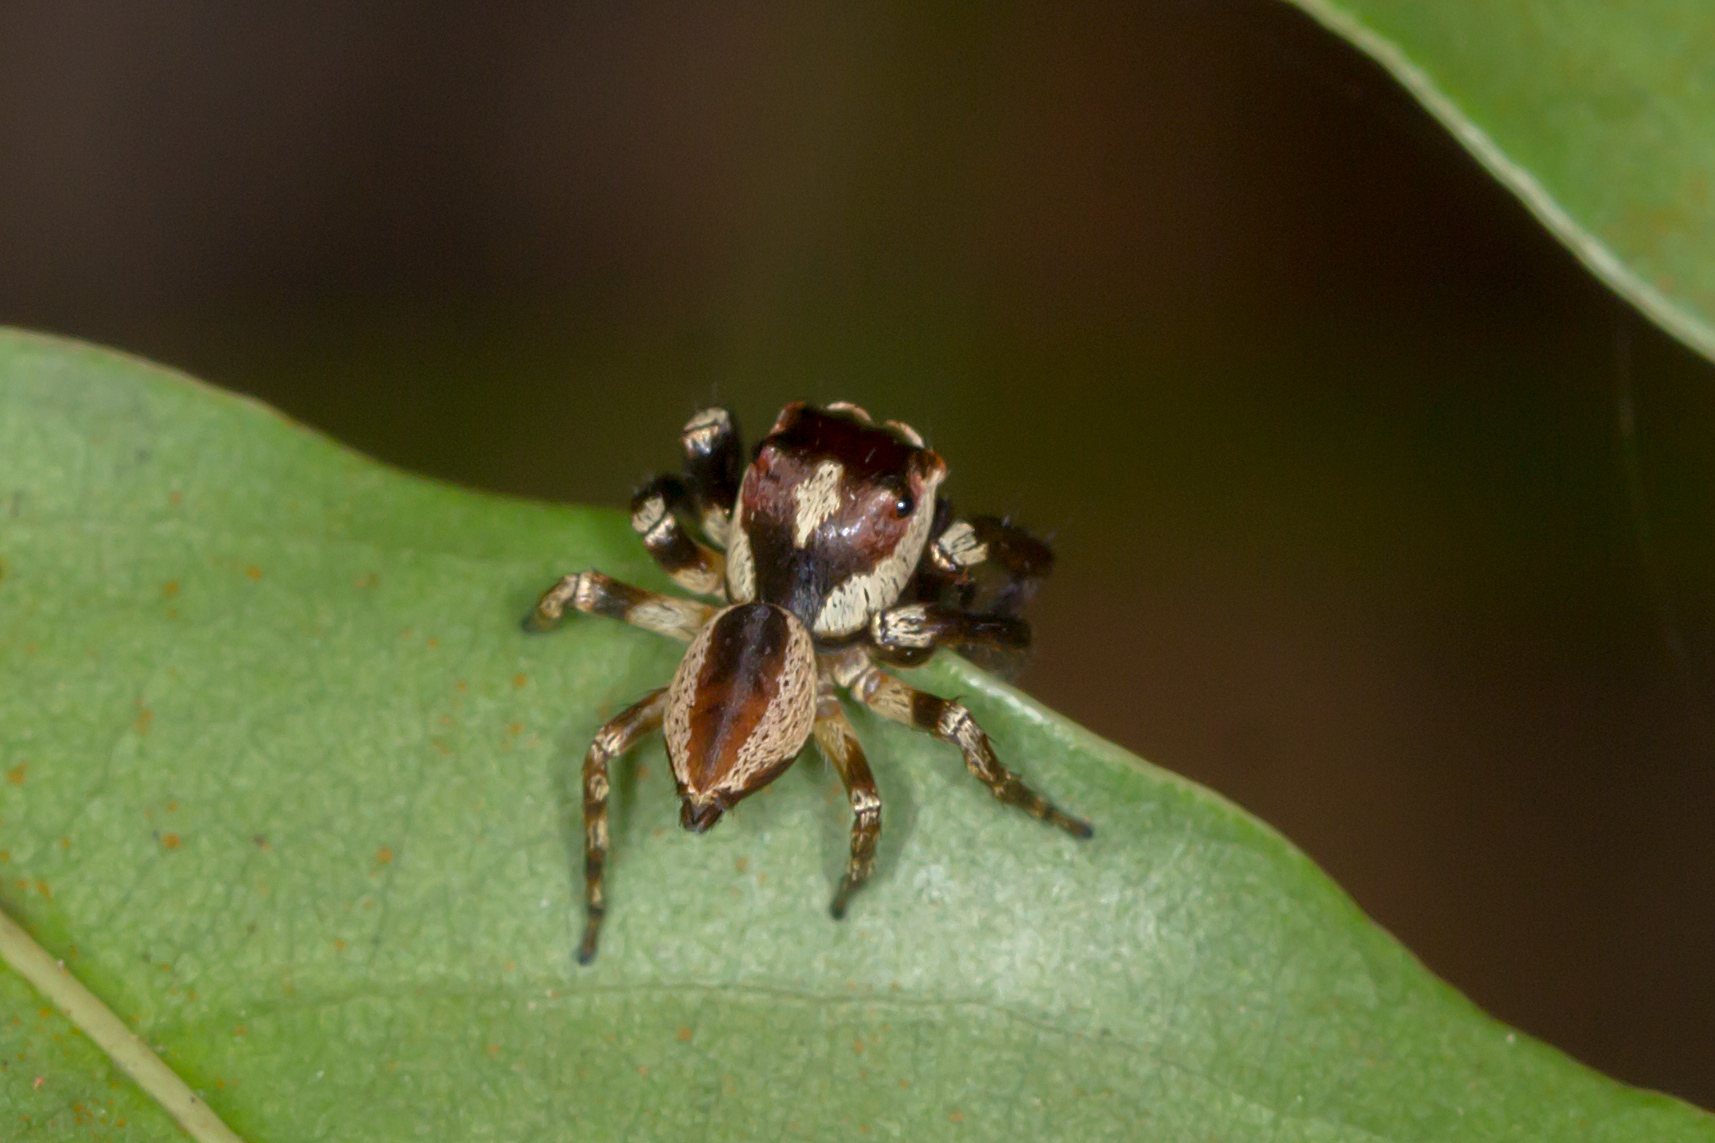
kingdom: Animalia
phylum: Arthropoda
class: Arachnida
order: Araneae
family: Salticidae
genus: Euryattus
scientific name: Euryattus wallacei
